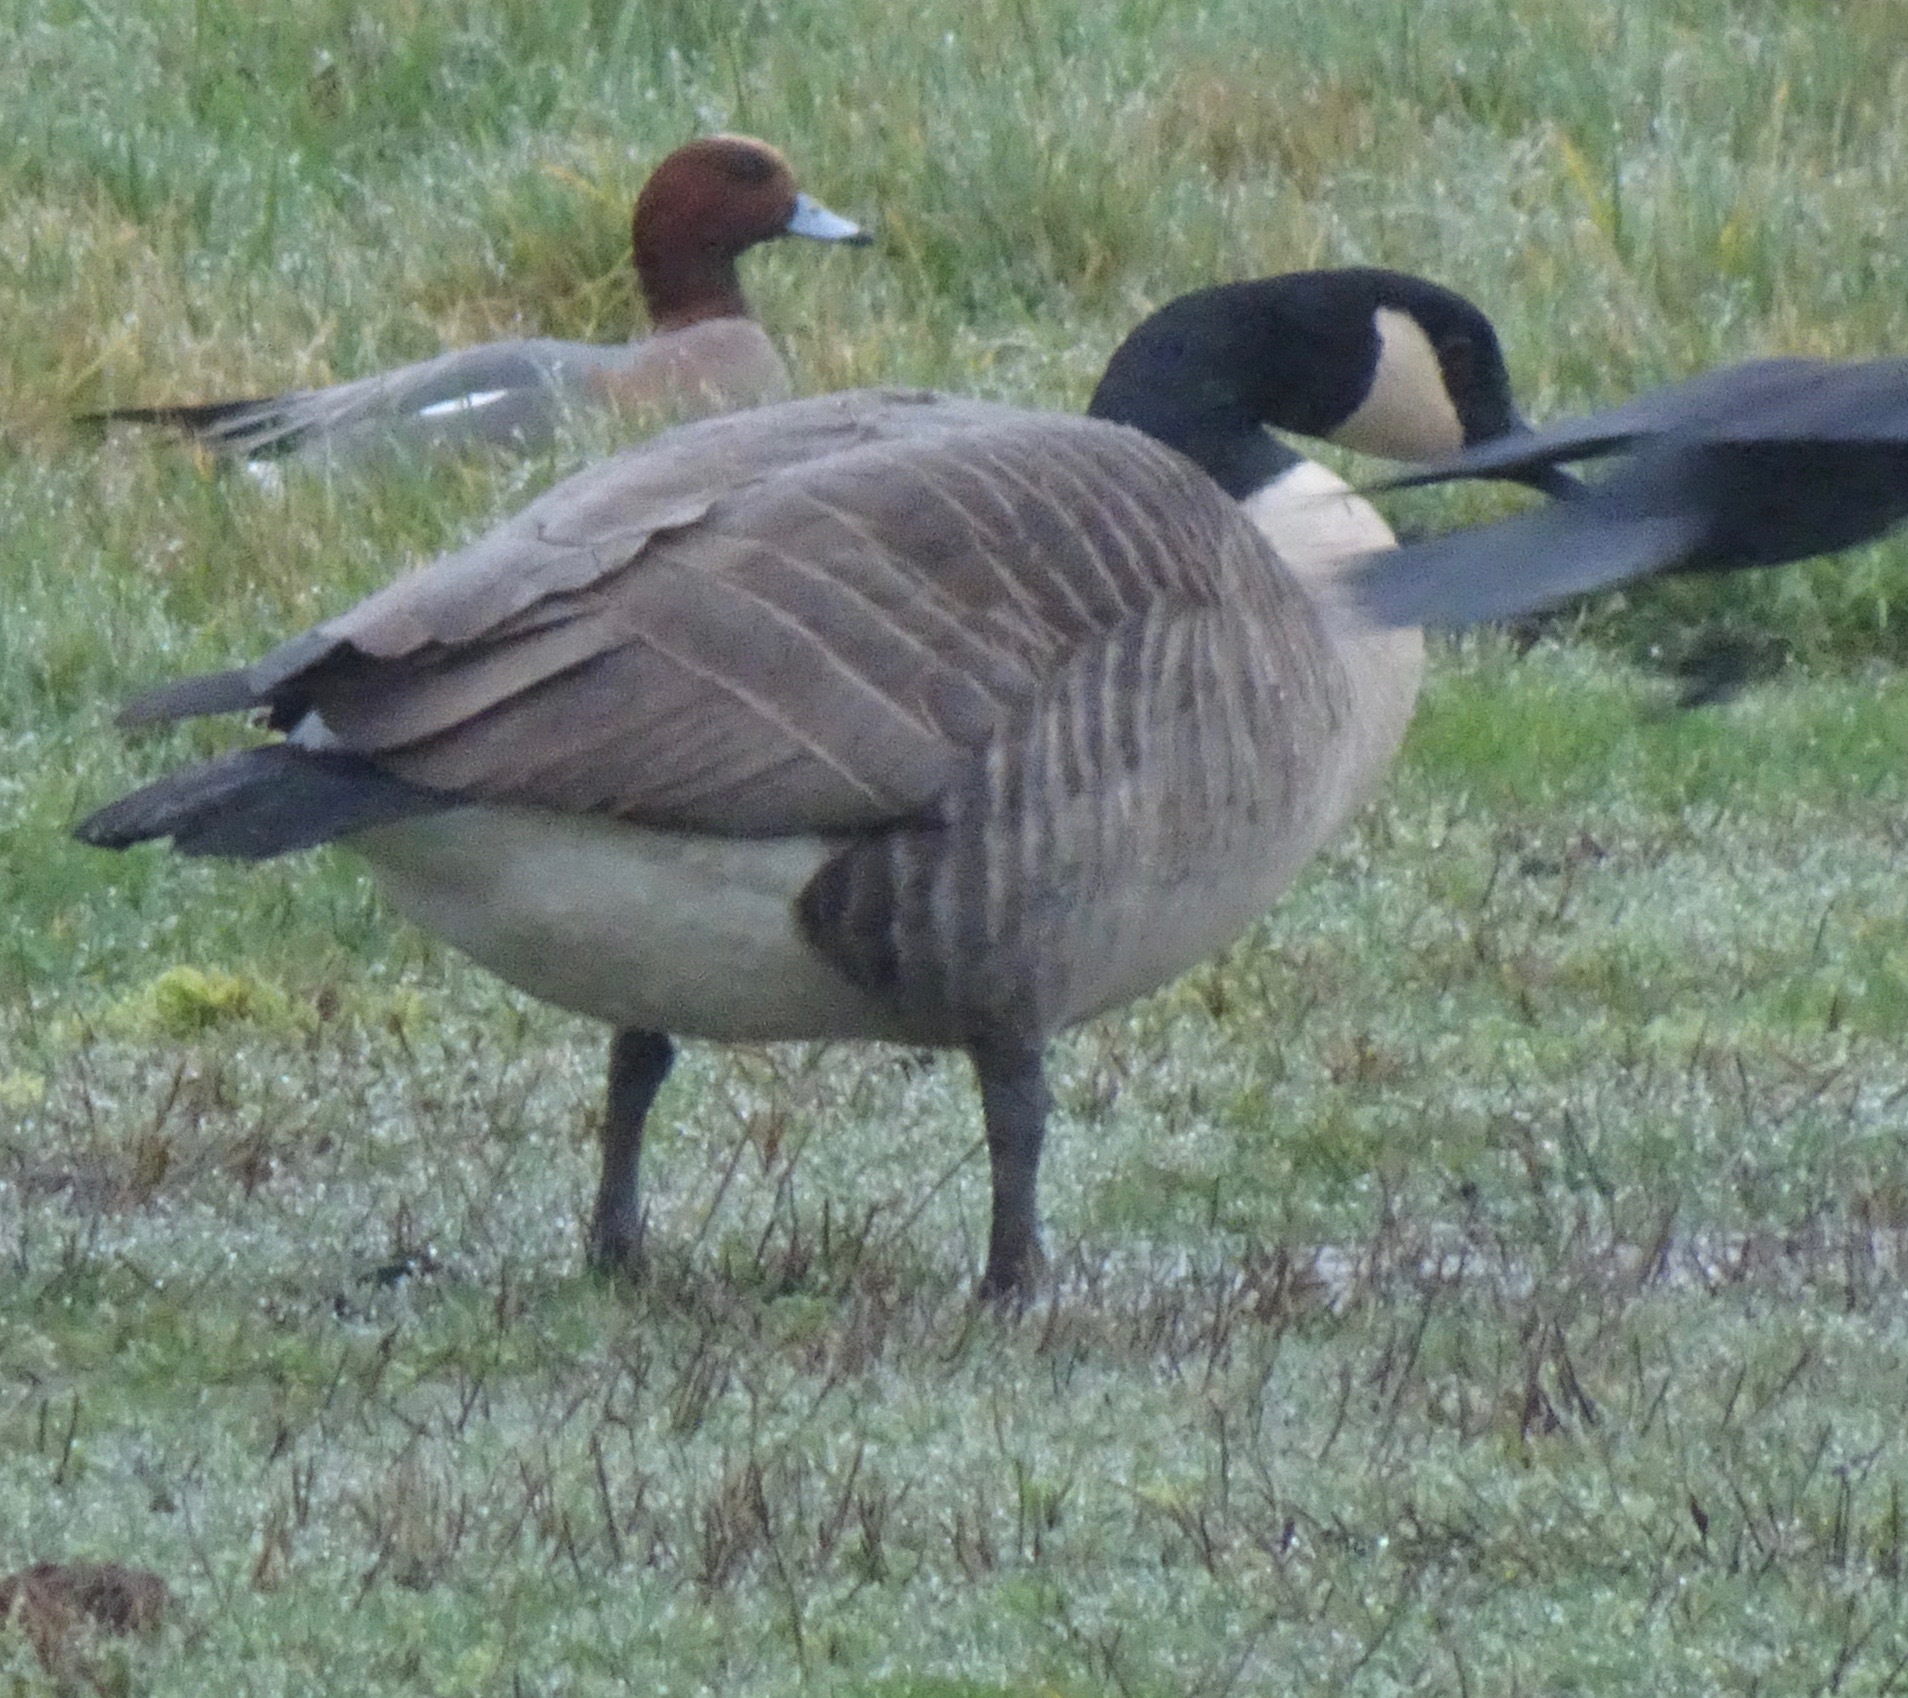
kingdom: Animalia
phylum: Chordata
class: Aves
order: Anseriformes
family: Anatidae
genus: Branta
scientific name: Branta canadensis
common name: Canada goose
